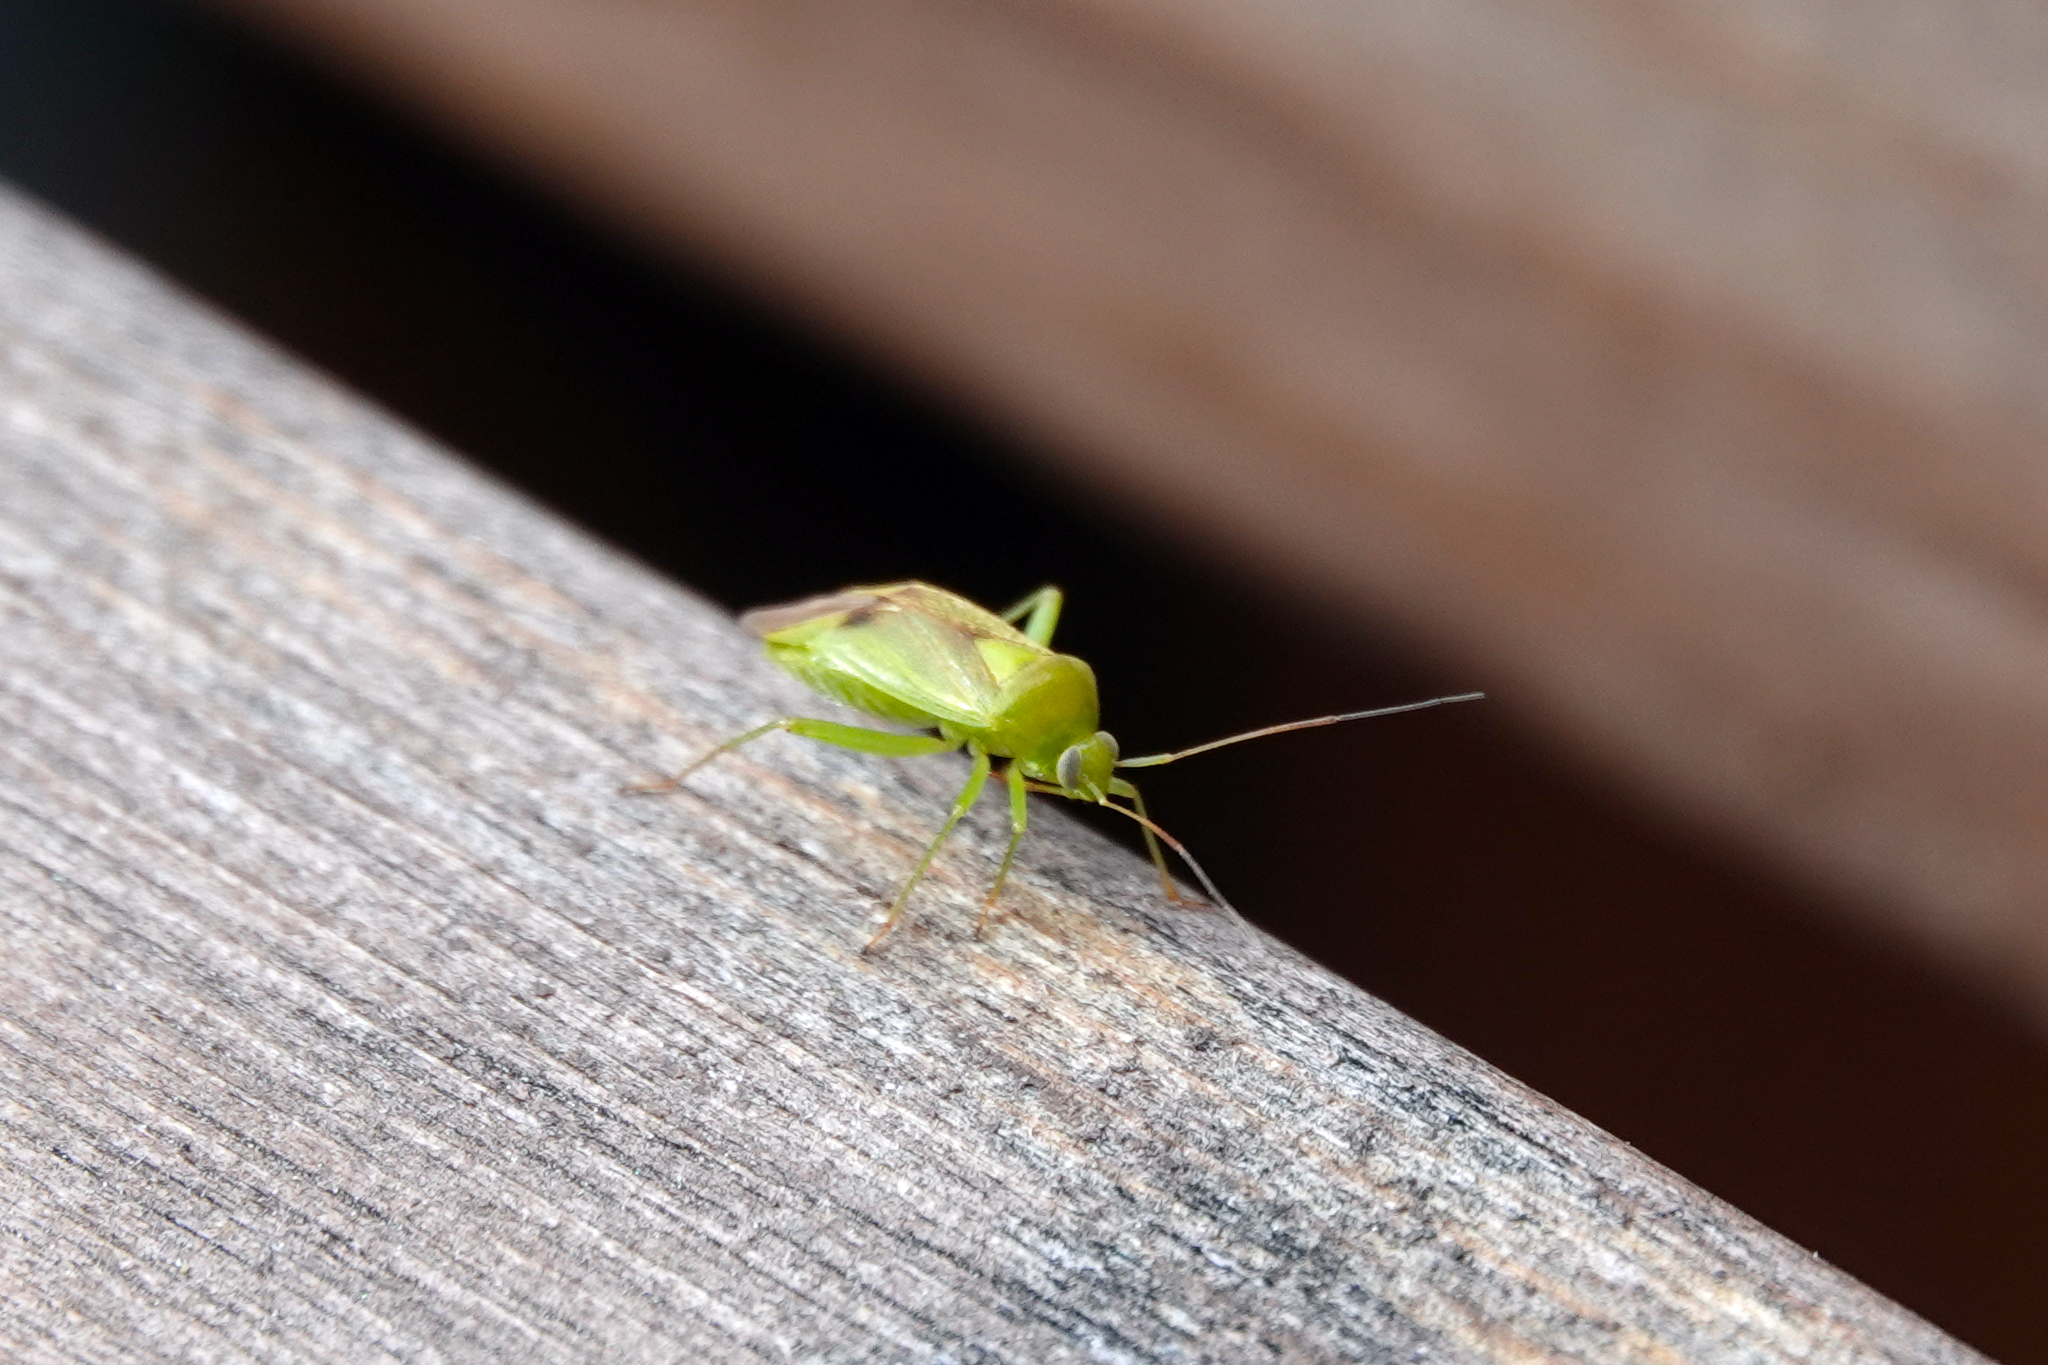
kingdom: Animalia
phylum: Arthropoda
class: Insecta
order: Hemiptera
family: Miridae
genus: Neolygus
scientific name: Neolygus contaminatus
